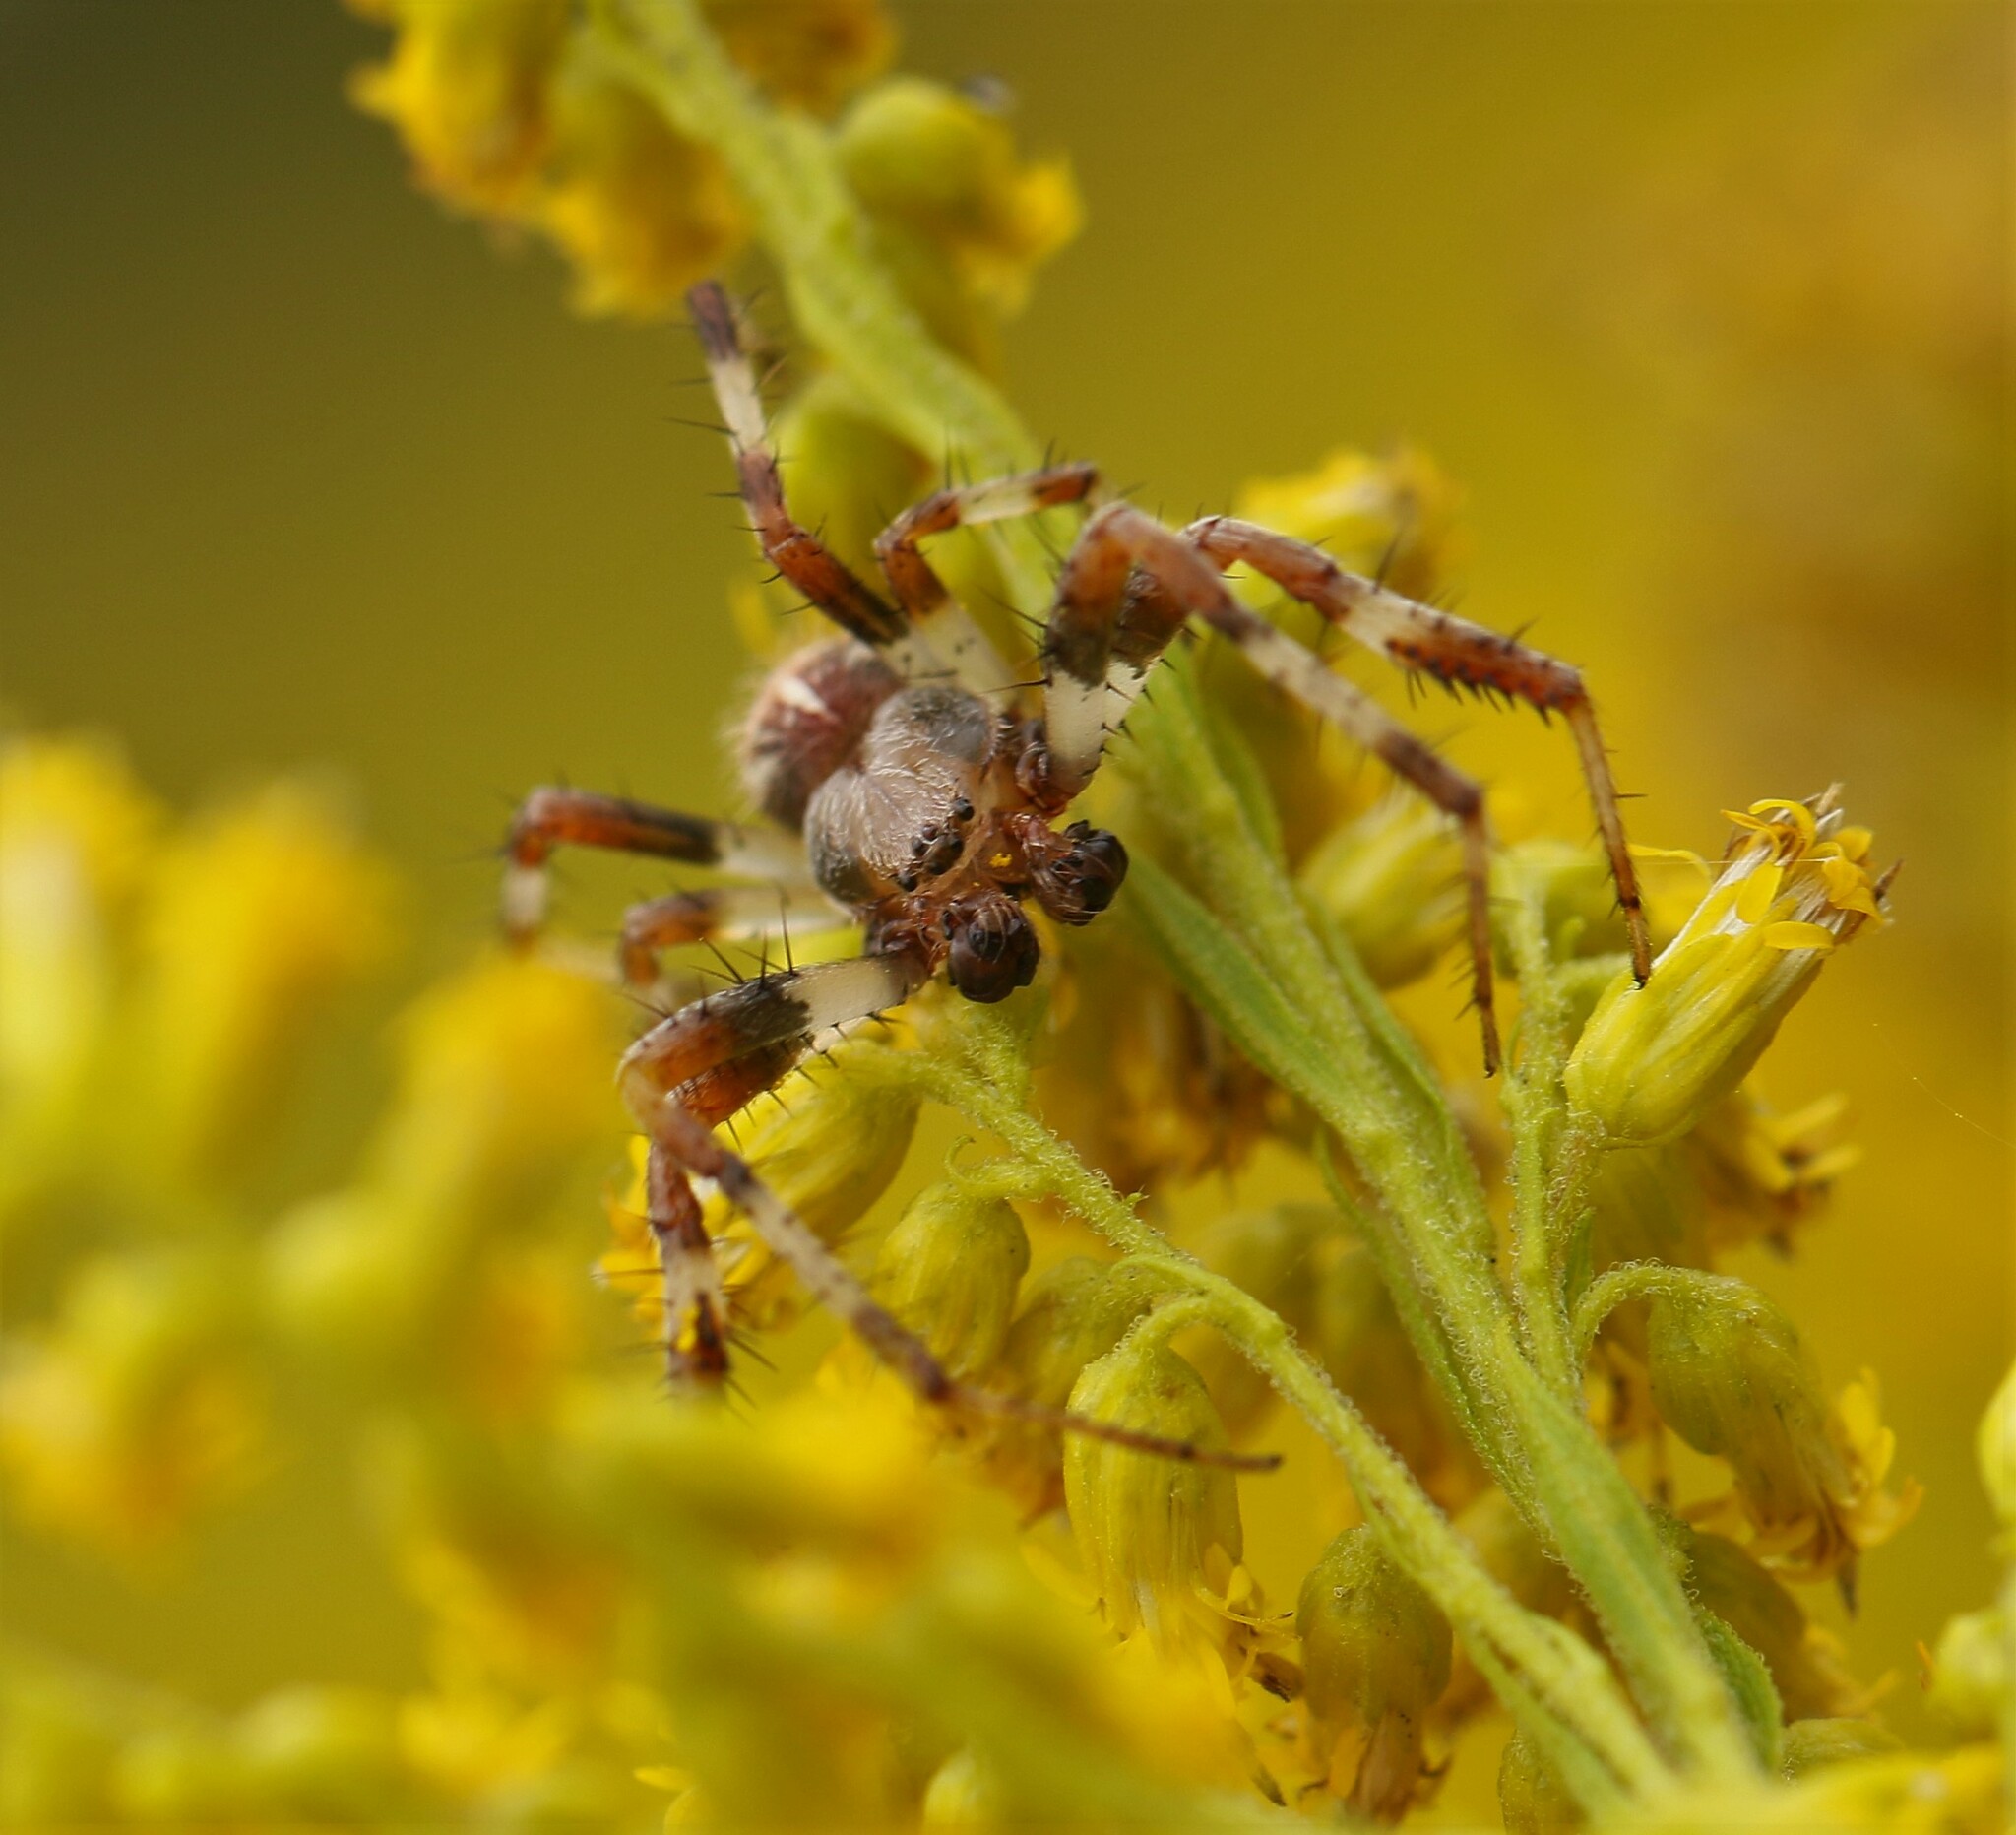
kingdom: Animalia
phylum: Arthropoda
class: Arachnida
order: Araneae
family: Araneidae
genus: Araneus
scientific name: Araneus marmoreus
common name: Marbled orbweaver
